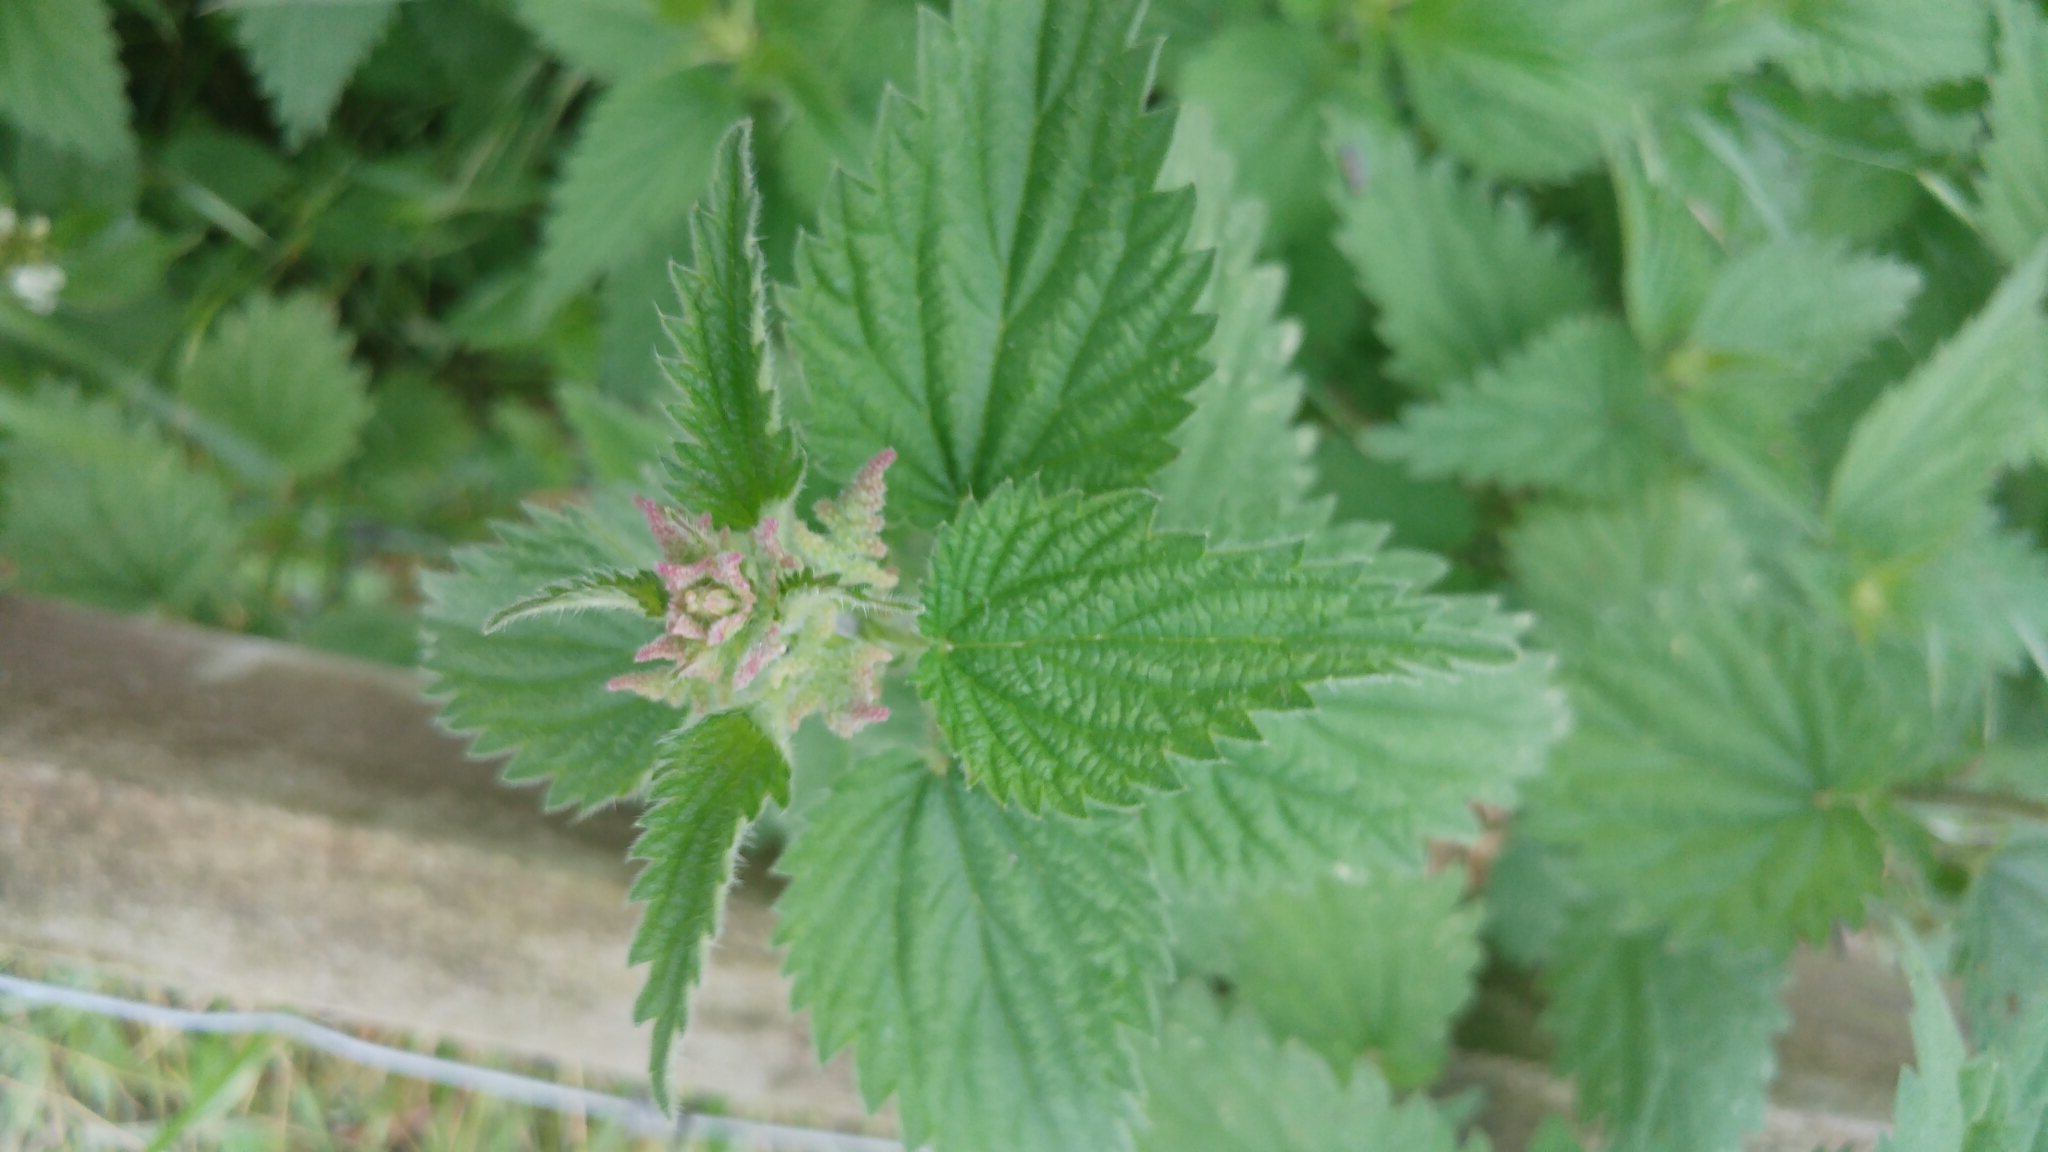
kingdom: Plantae
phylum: Tracheophyta
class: Magnoliopsida
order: Rosales
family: Urticaceae
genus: Urtica
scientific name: Urtica dioica
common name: Common nettle
